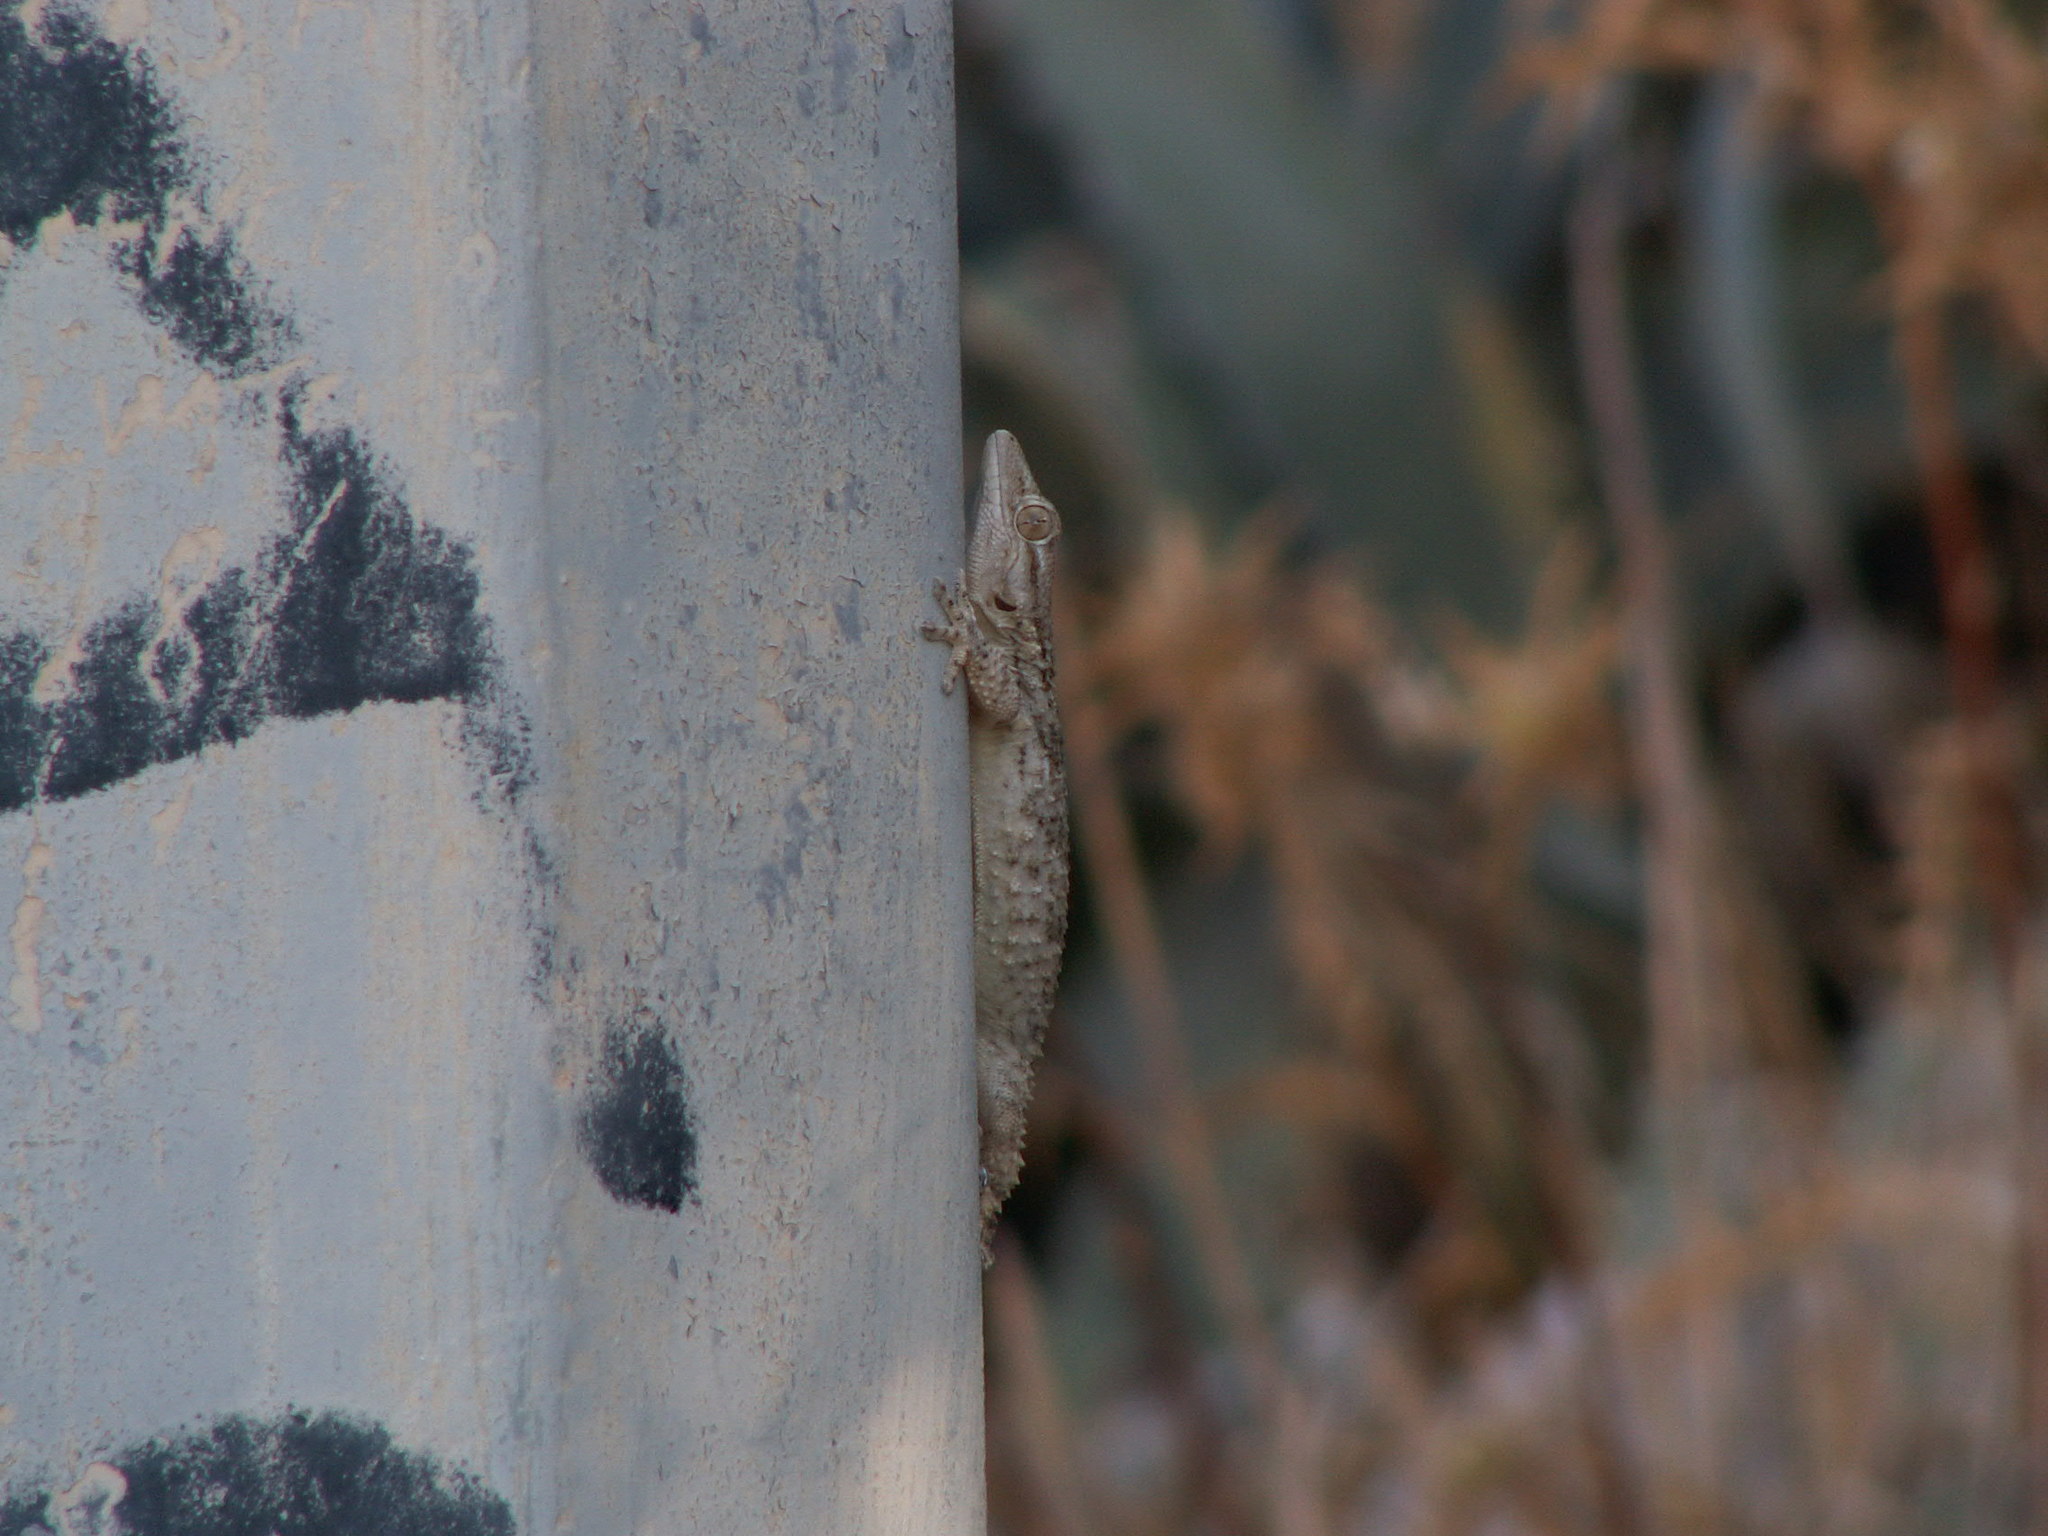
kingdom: Animalia
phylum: Chordata
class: Squamata
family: Phyllodactylidae
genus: Tarentola
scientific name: Tarentola mauritanica
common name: Moorish gecko
